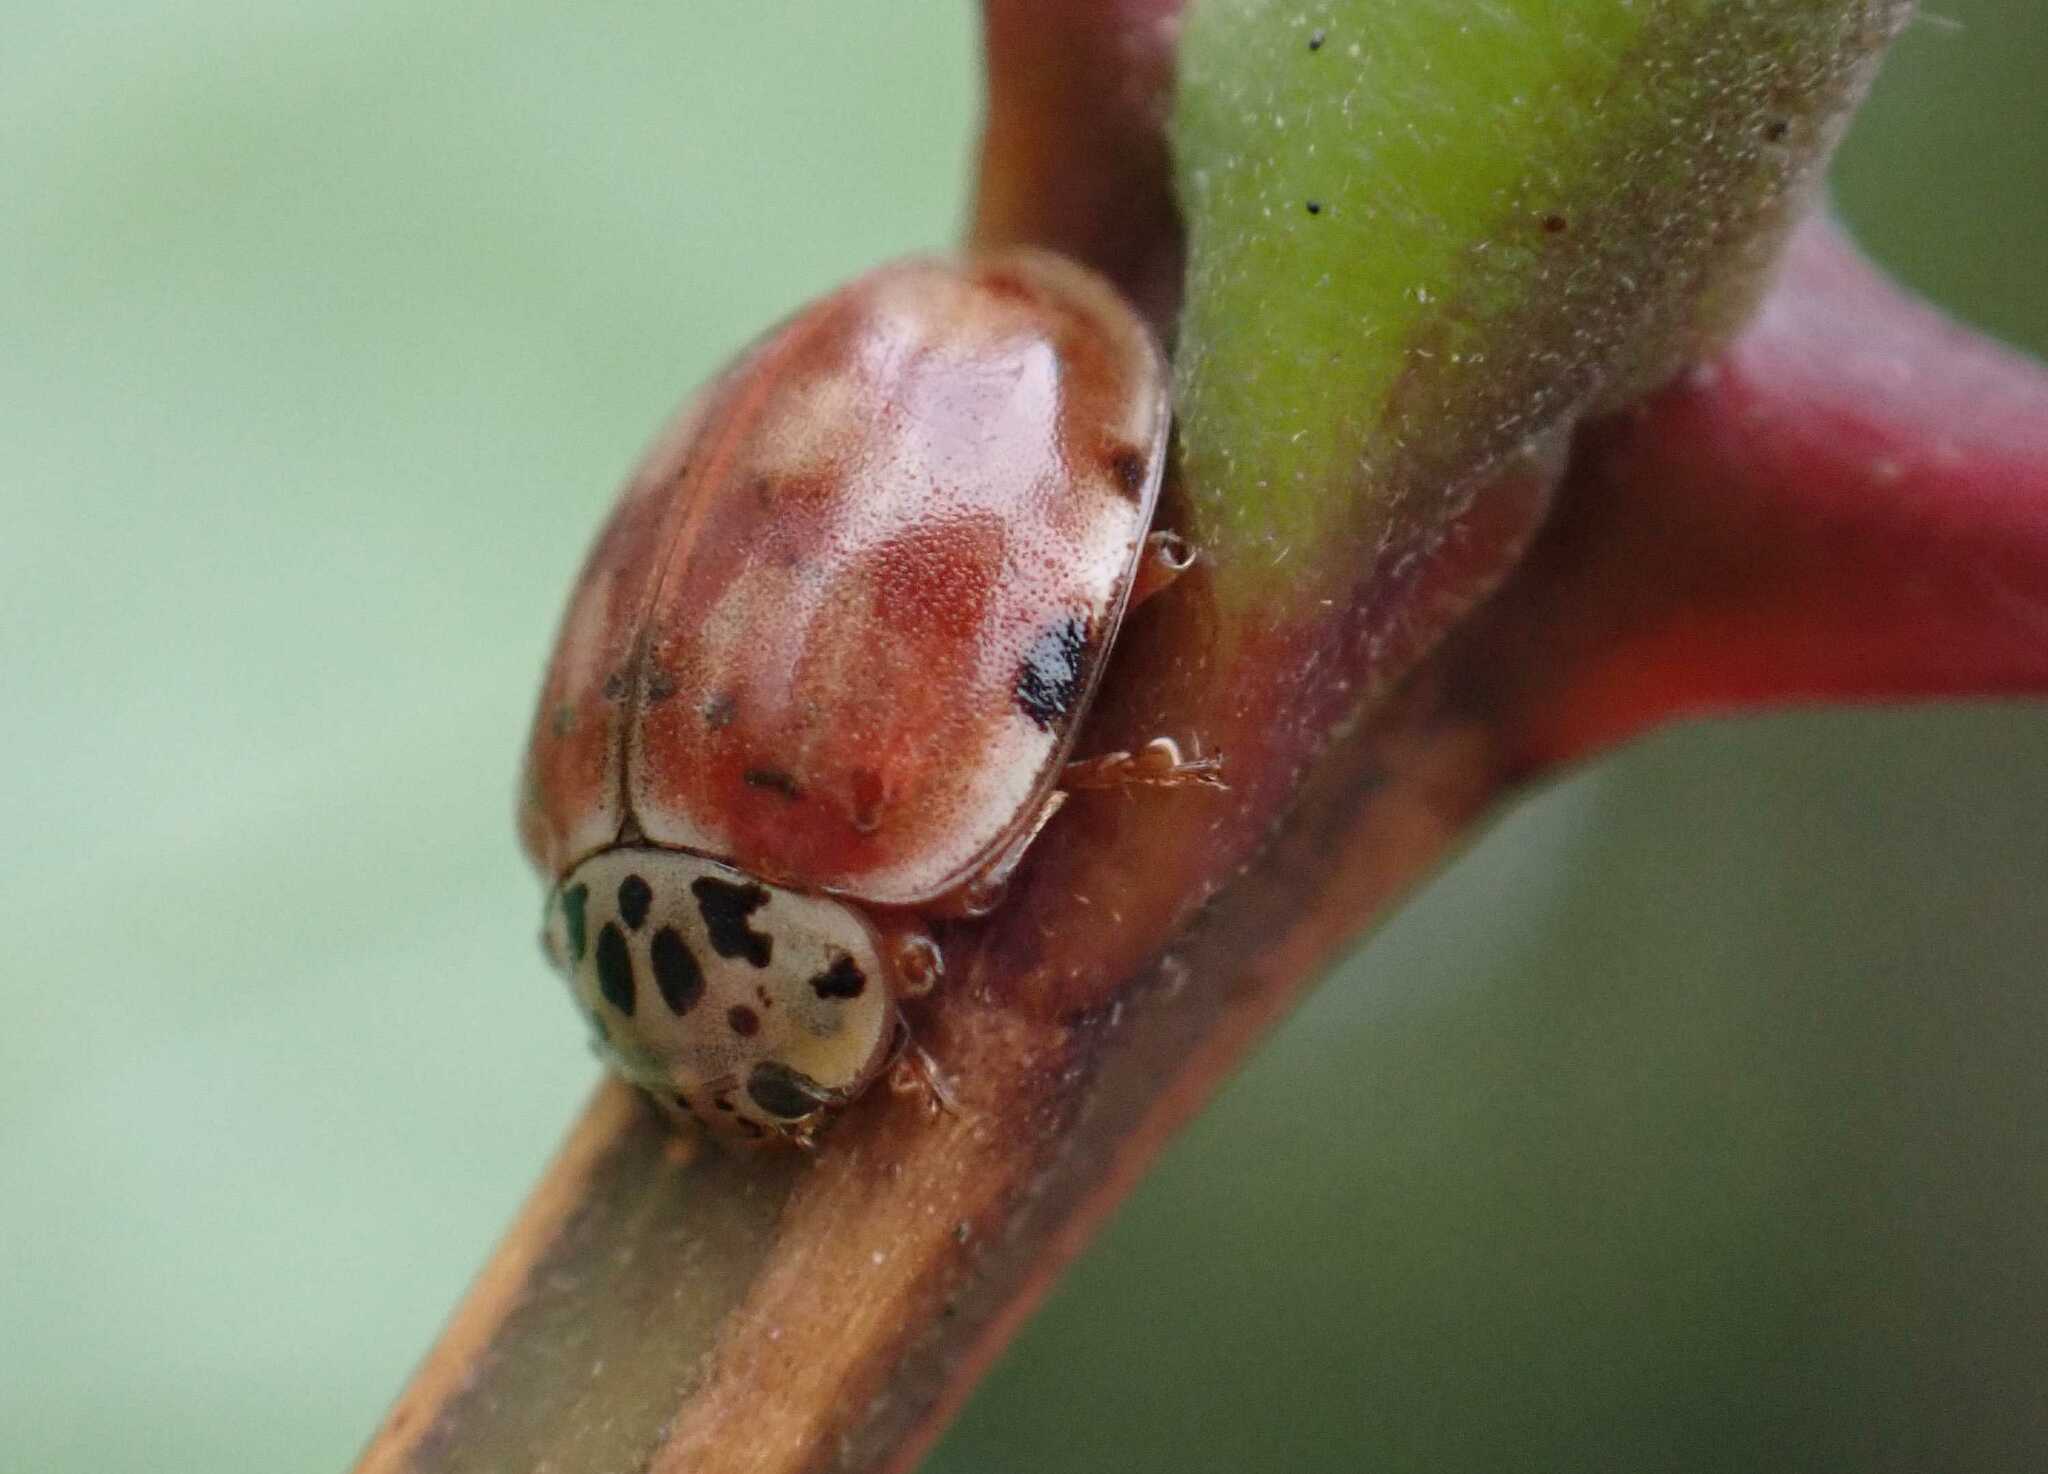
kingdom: Animalia
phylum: Arthropoda
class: Insecta
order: Coleoptera
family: Coccinellidae
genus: Harmonia
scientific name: Harmonia quadripunctata
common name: Cream-streaked ladybird
